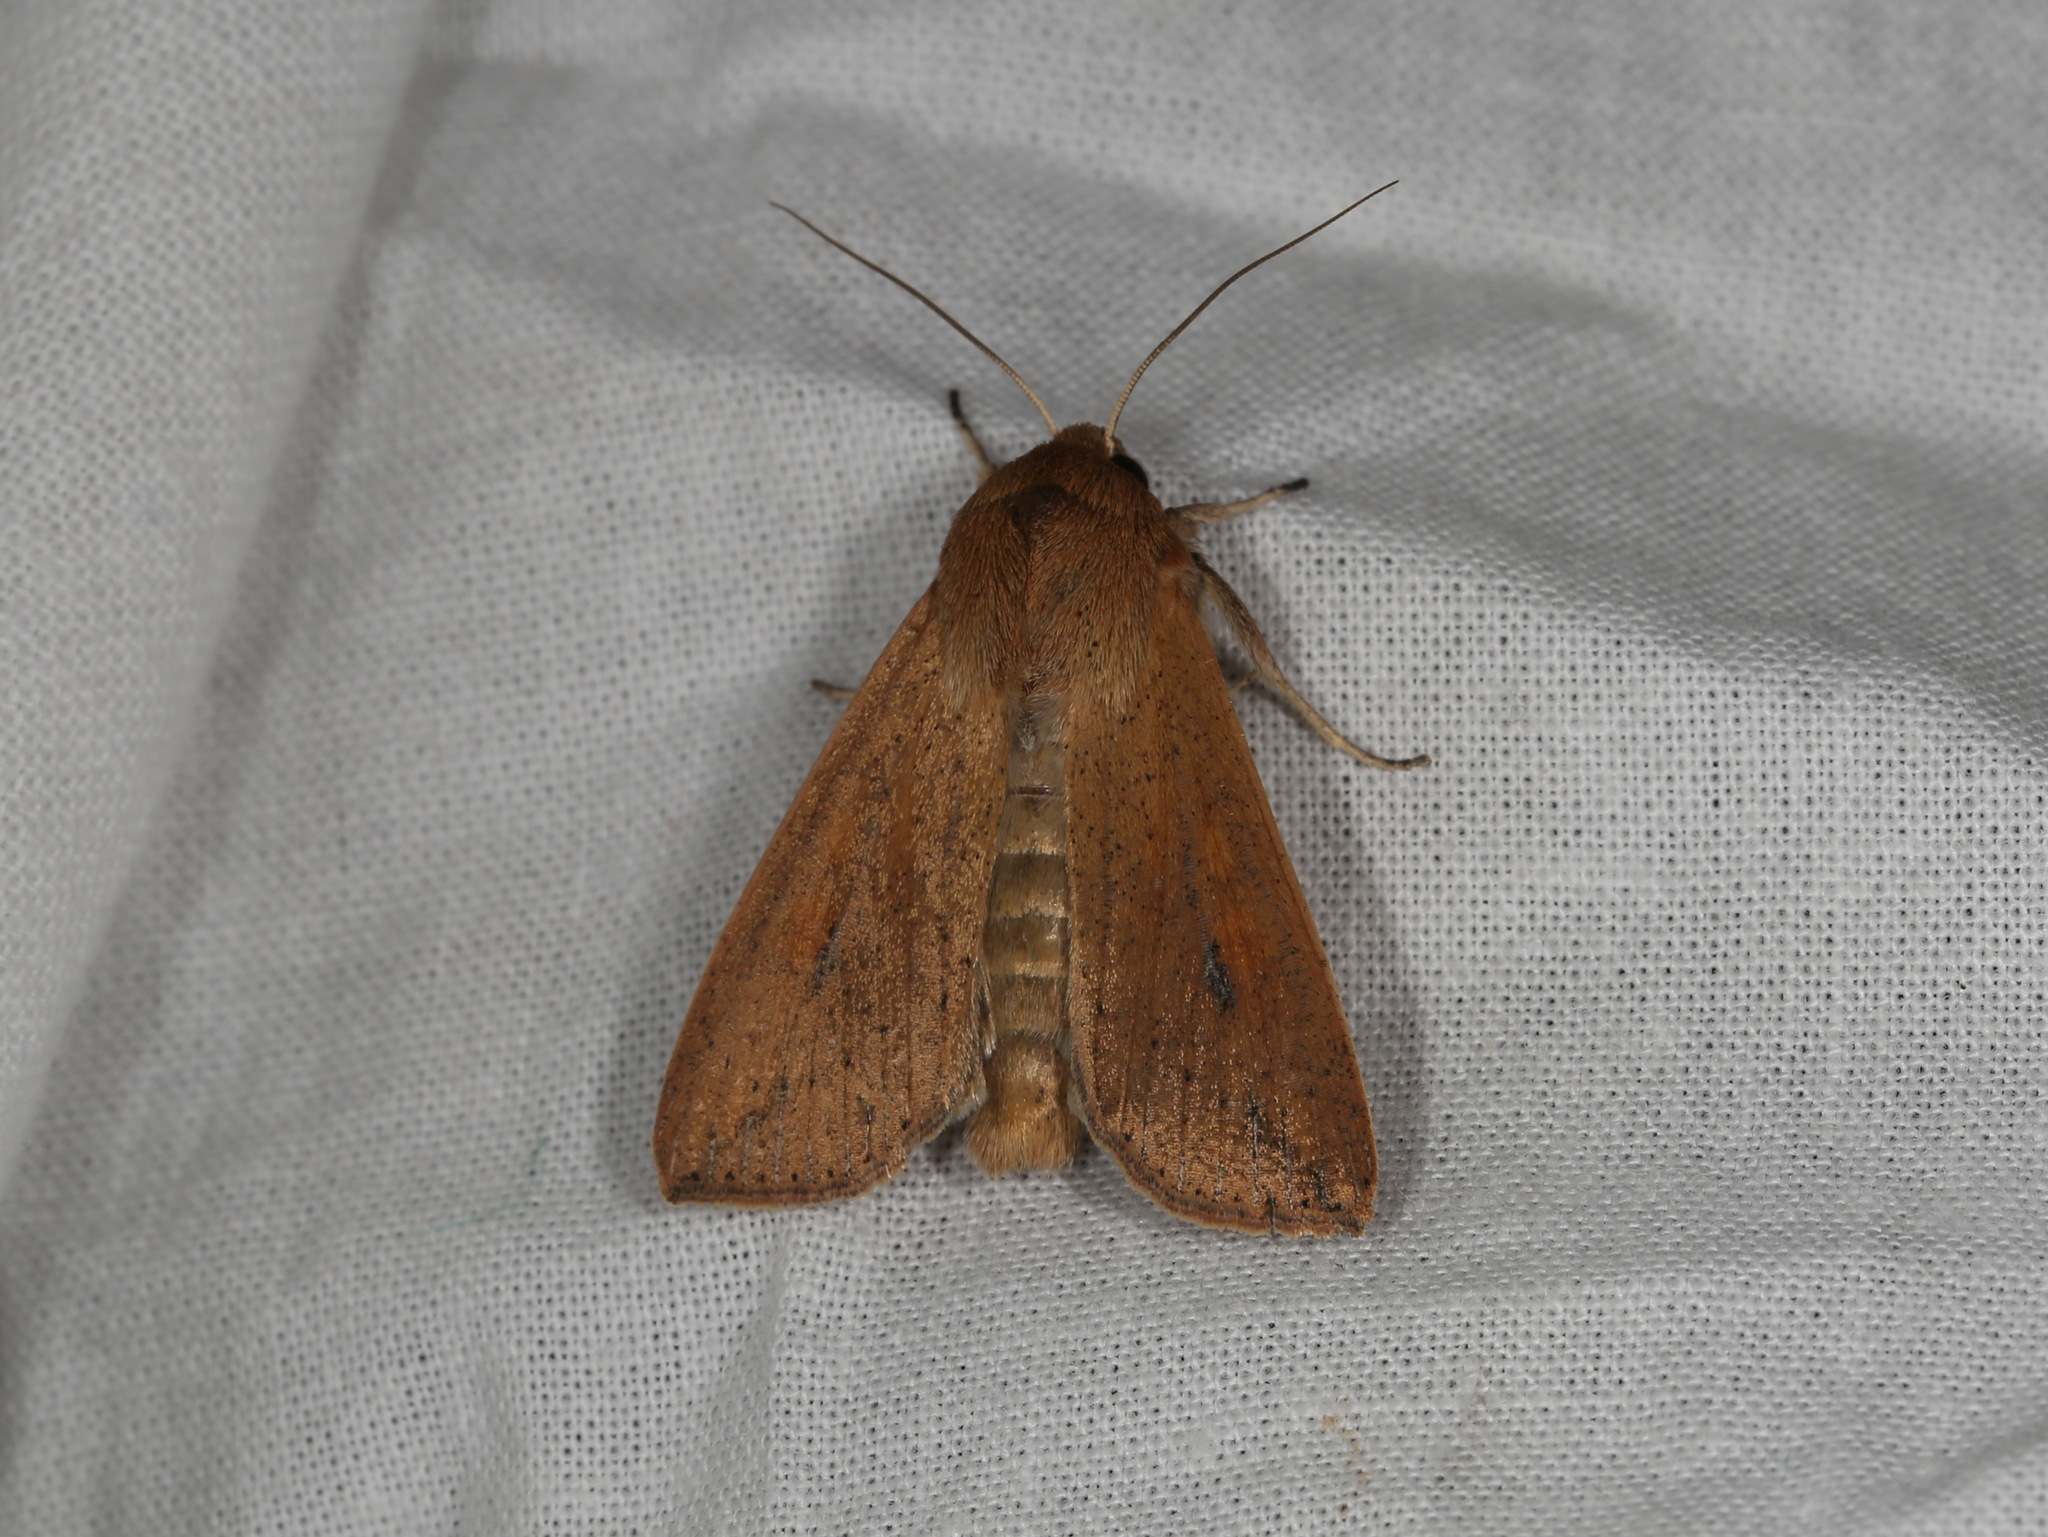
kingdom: Animalia
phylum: Arthropoda
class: Insecta
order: Lepidoptera
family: Noctuidae
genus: Mythimna
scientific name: Mythimna convecta
